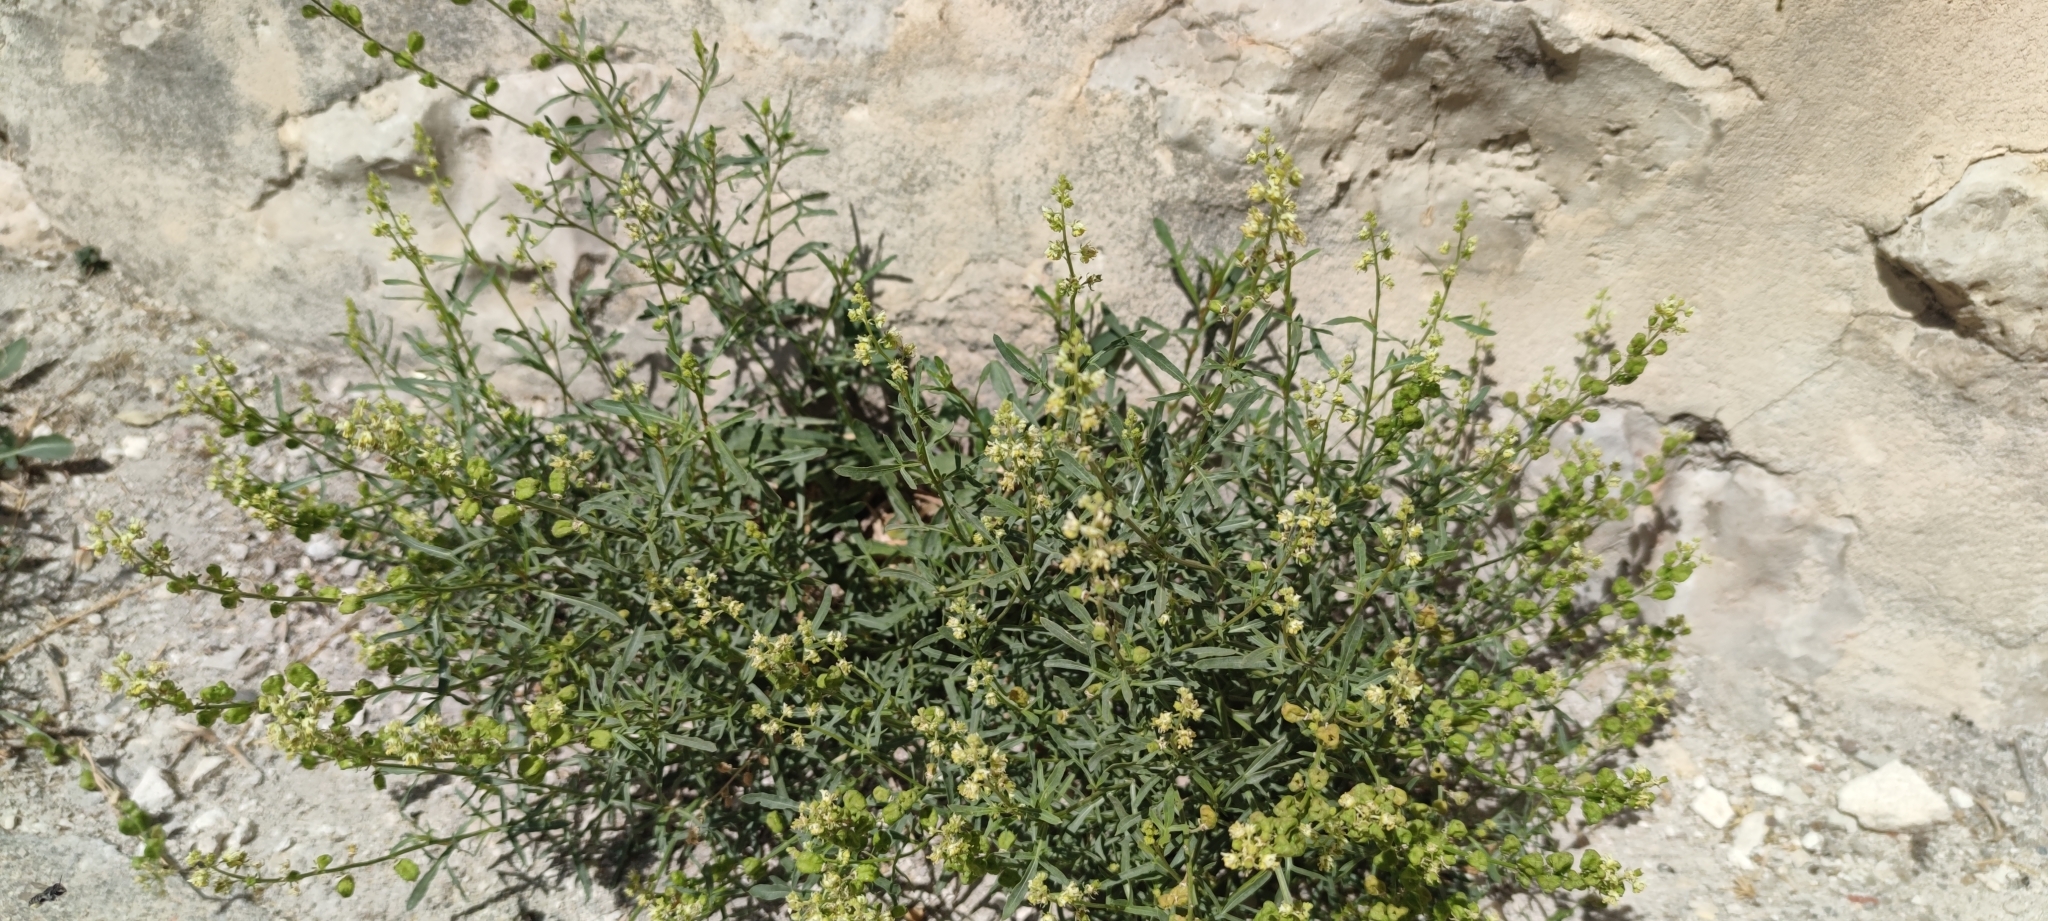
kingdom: Plantae
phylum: Tracheophyta
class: Magnoliopsida
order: Brassicales
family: Resedaceae
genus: Reseda
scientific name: Reseda lutea
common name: Wild mignonette
